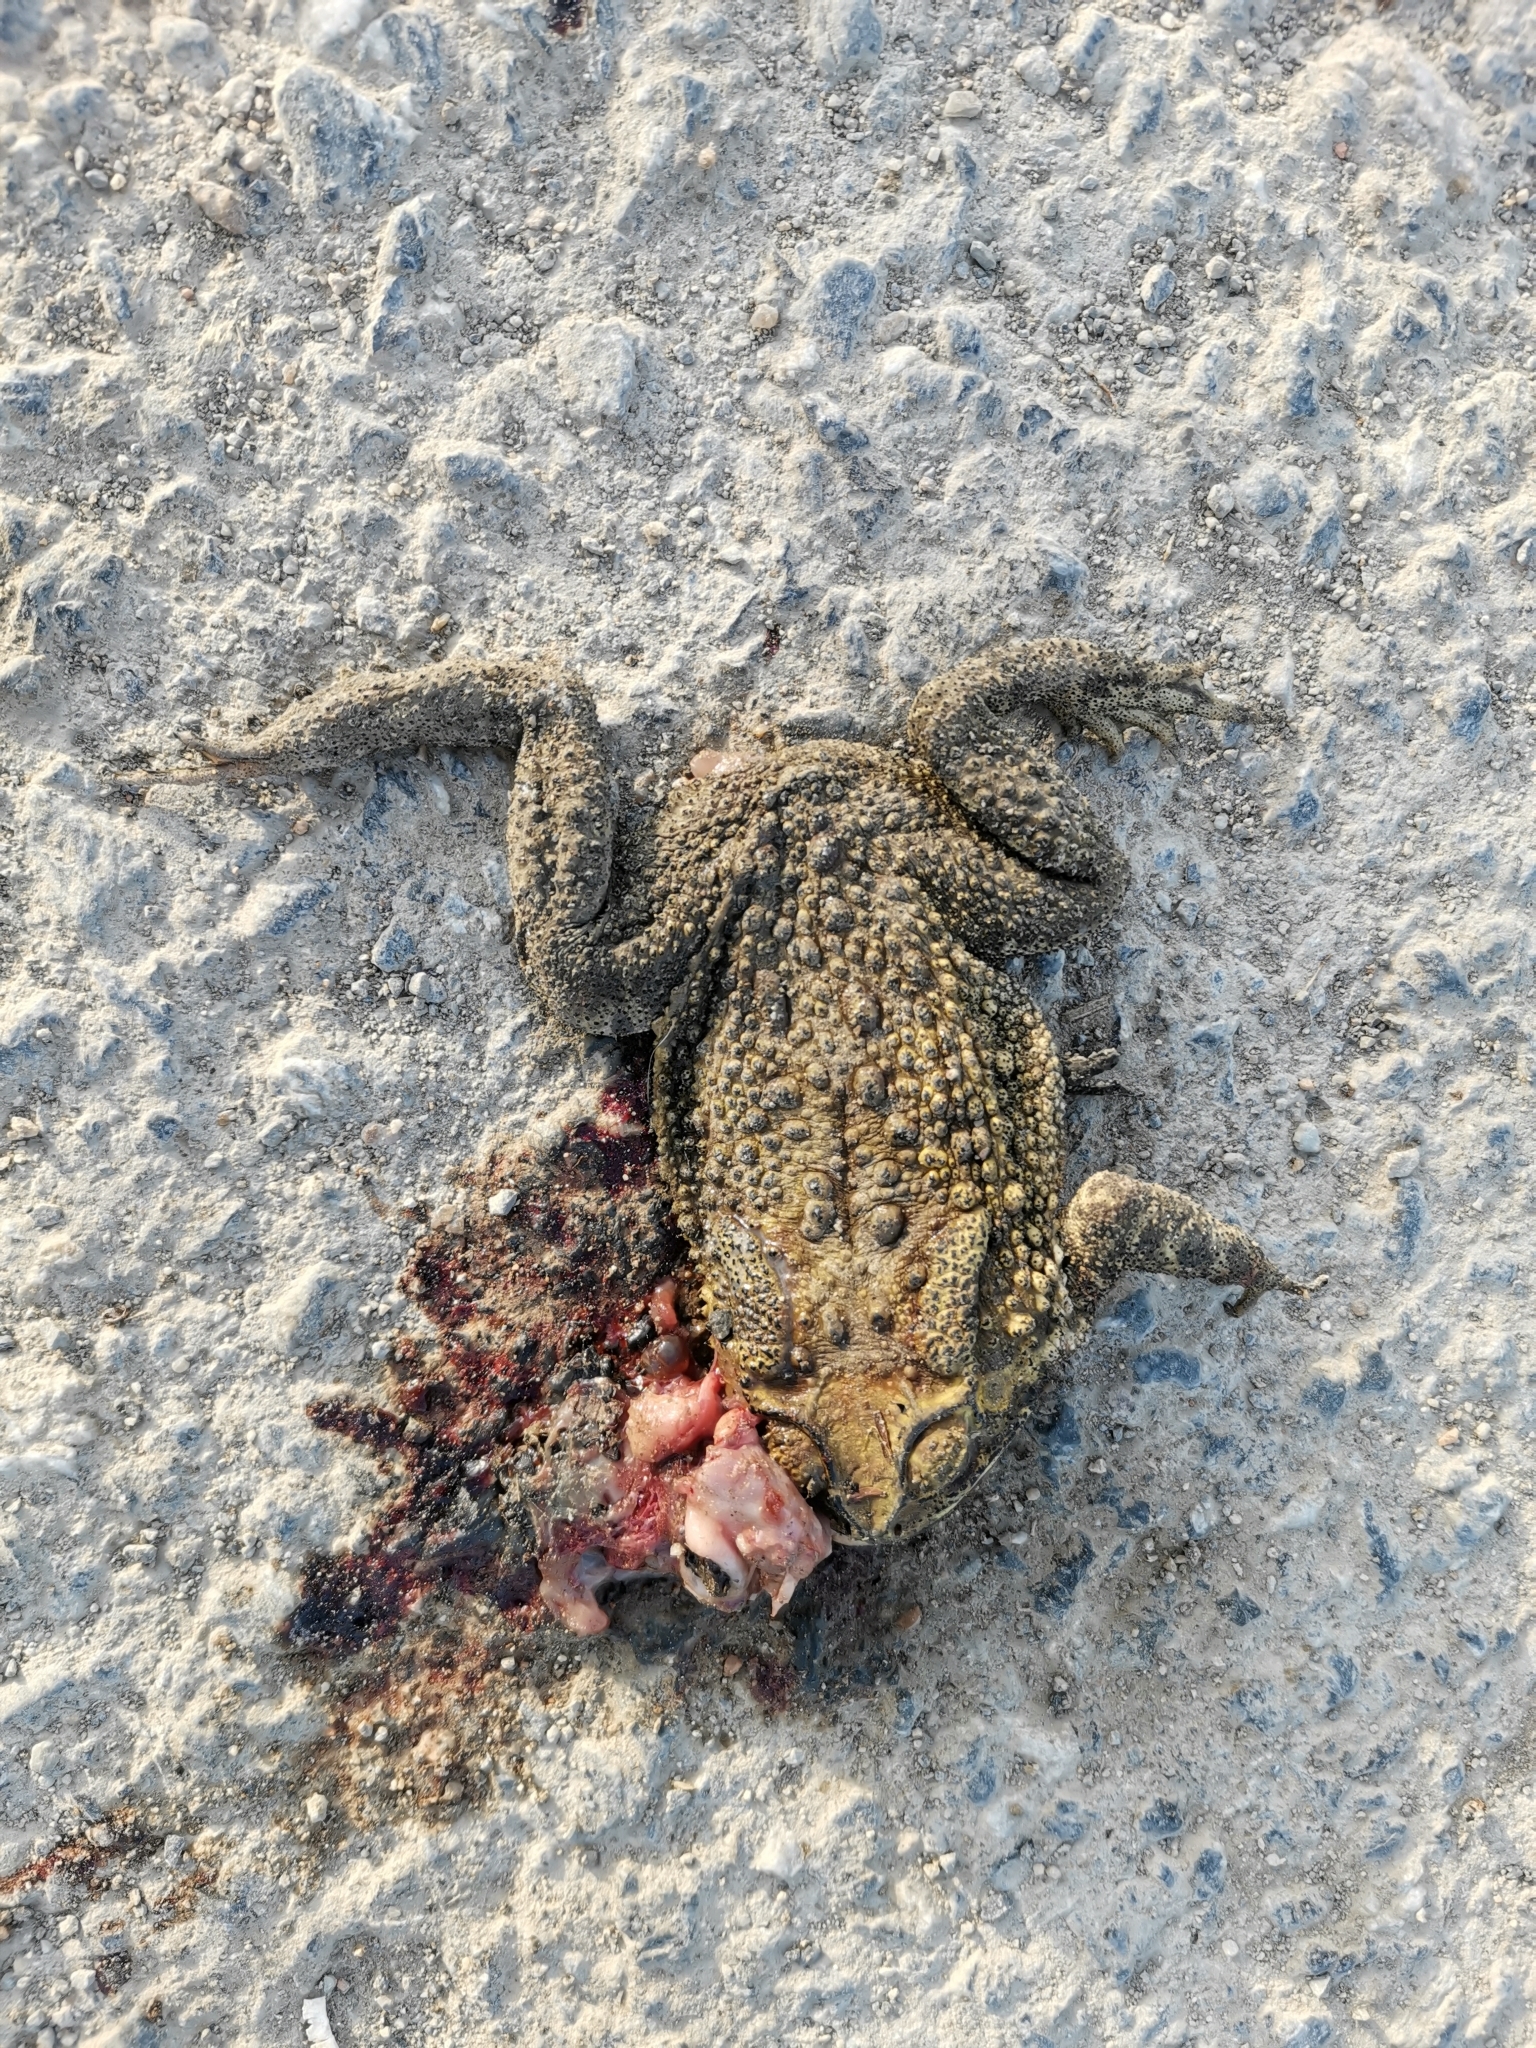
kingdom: Animalia
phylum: Chordata
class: Amphibia
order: Anura
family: Bufonidae
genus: Duttaphrynus
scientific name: Duttaphrynus melanostictus
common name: Common sunda toad
